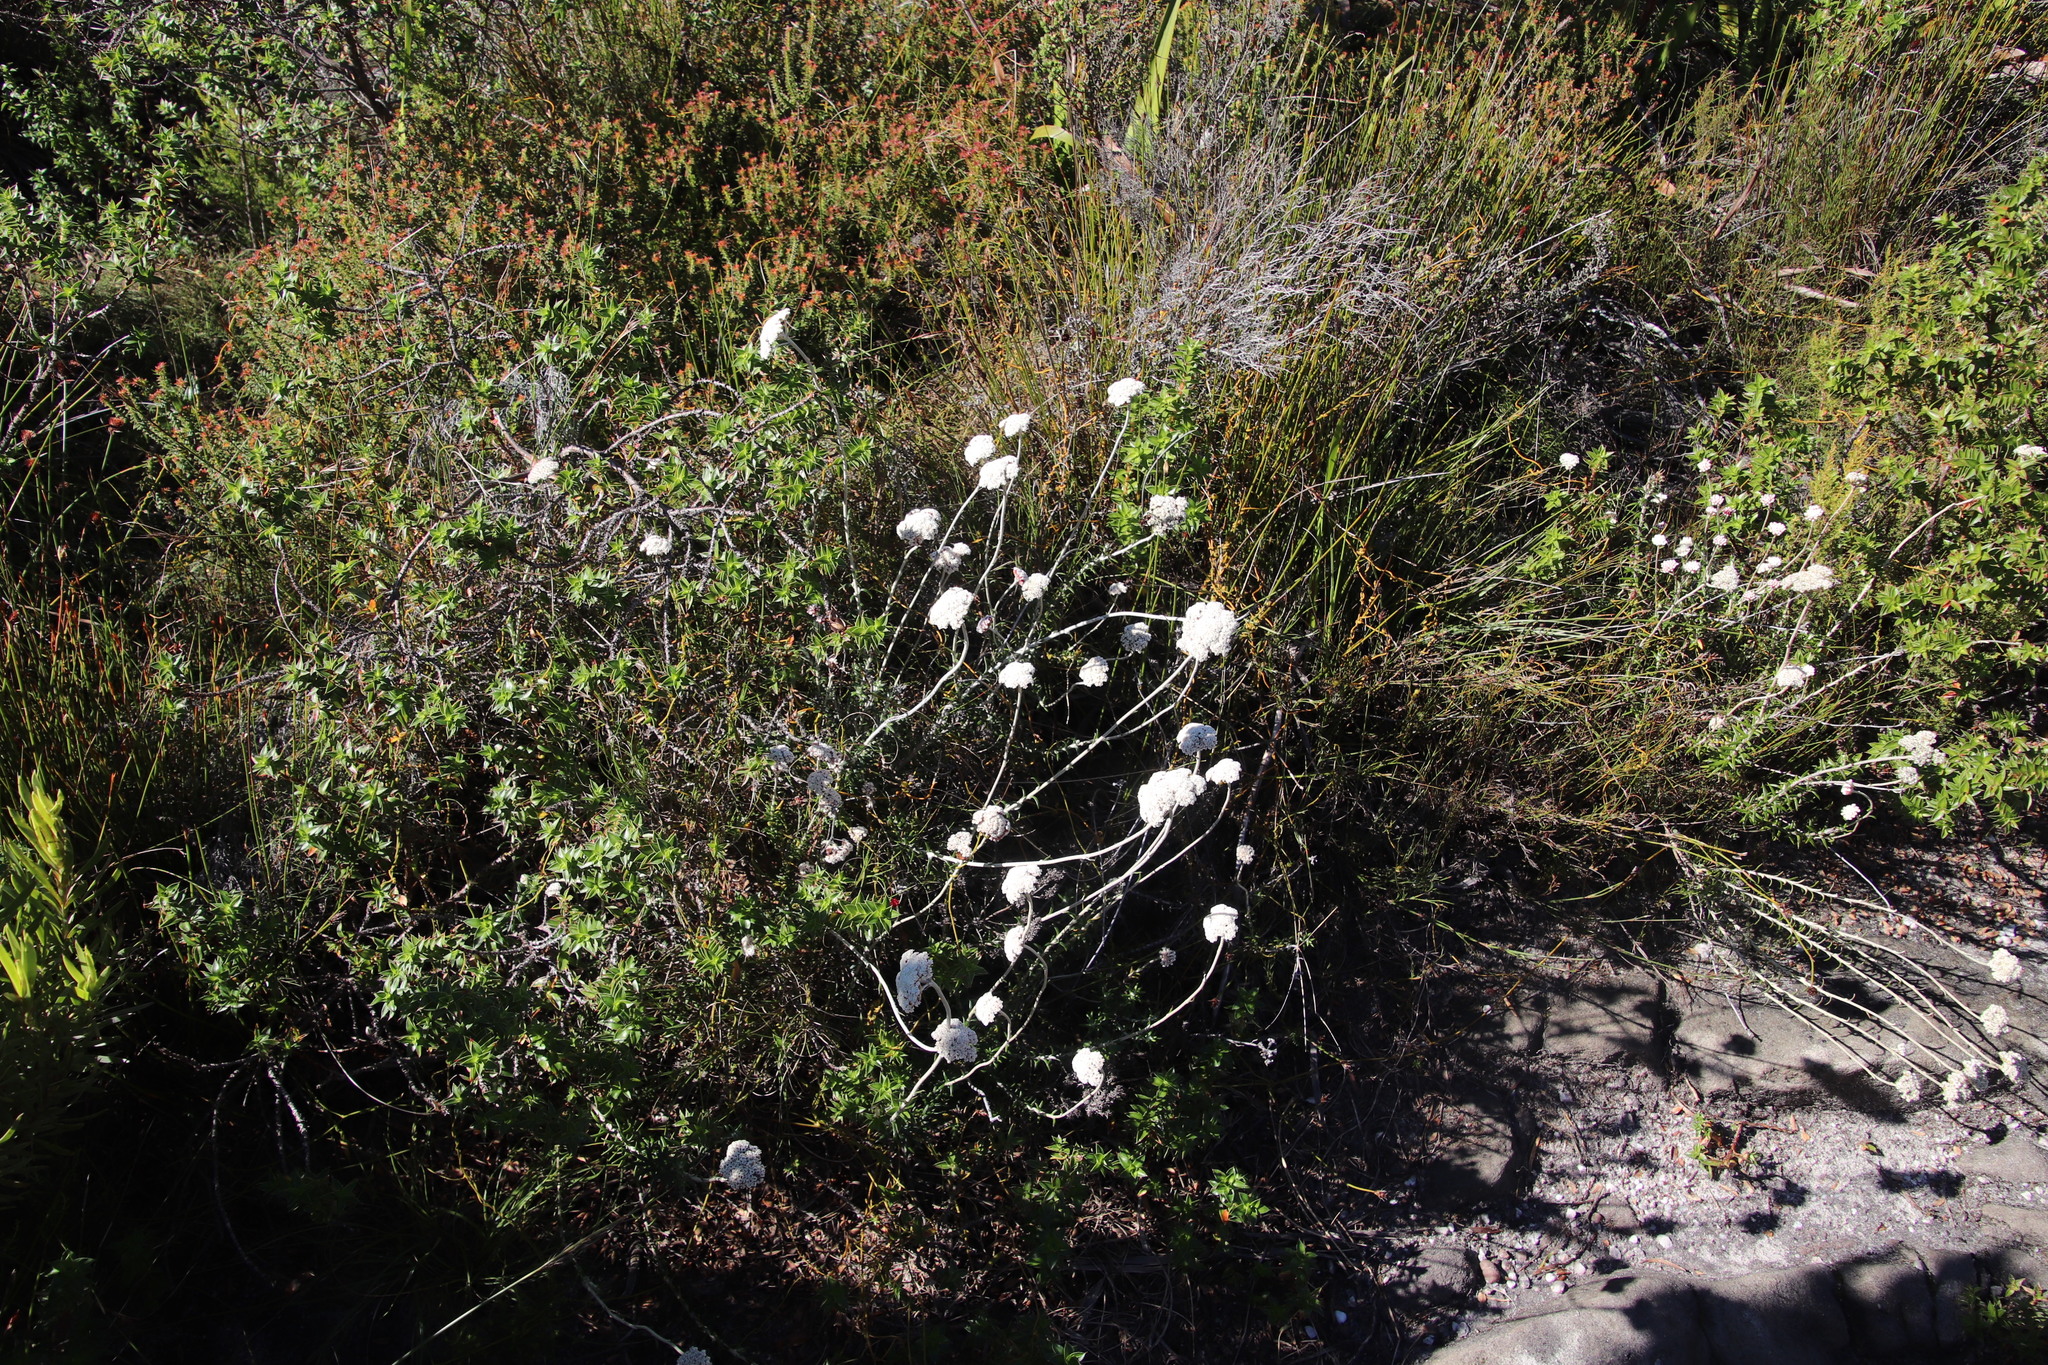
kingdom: Plantae
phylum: Tracheophyta
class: Magnoliopsida
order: Asterales
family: Asteraceae
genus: Anaxeton
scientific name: Anaxeton arborescens
